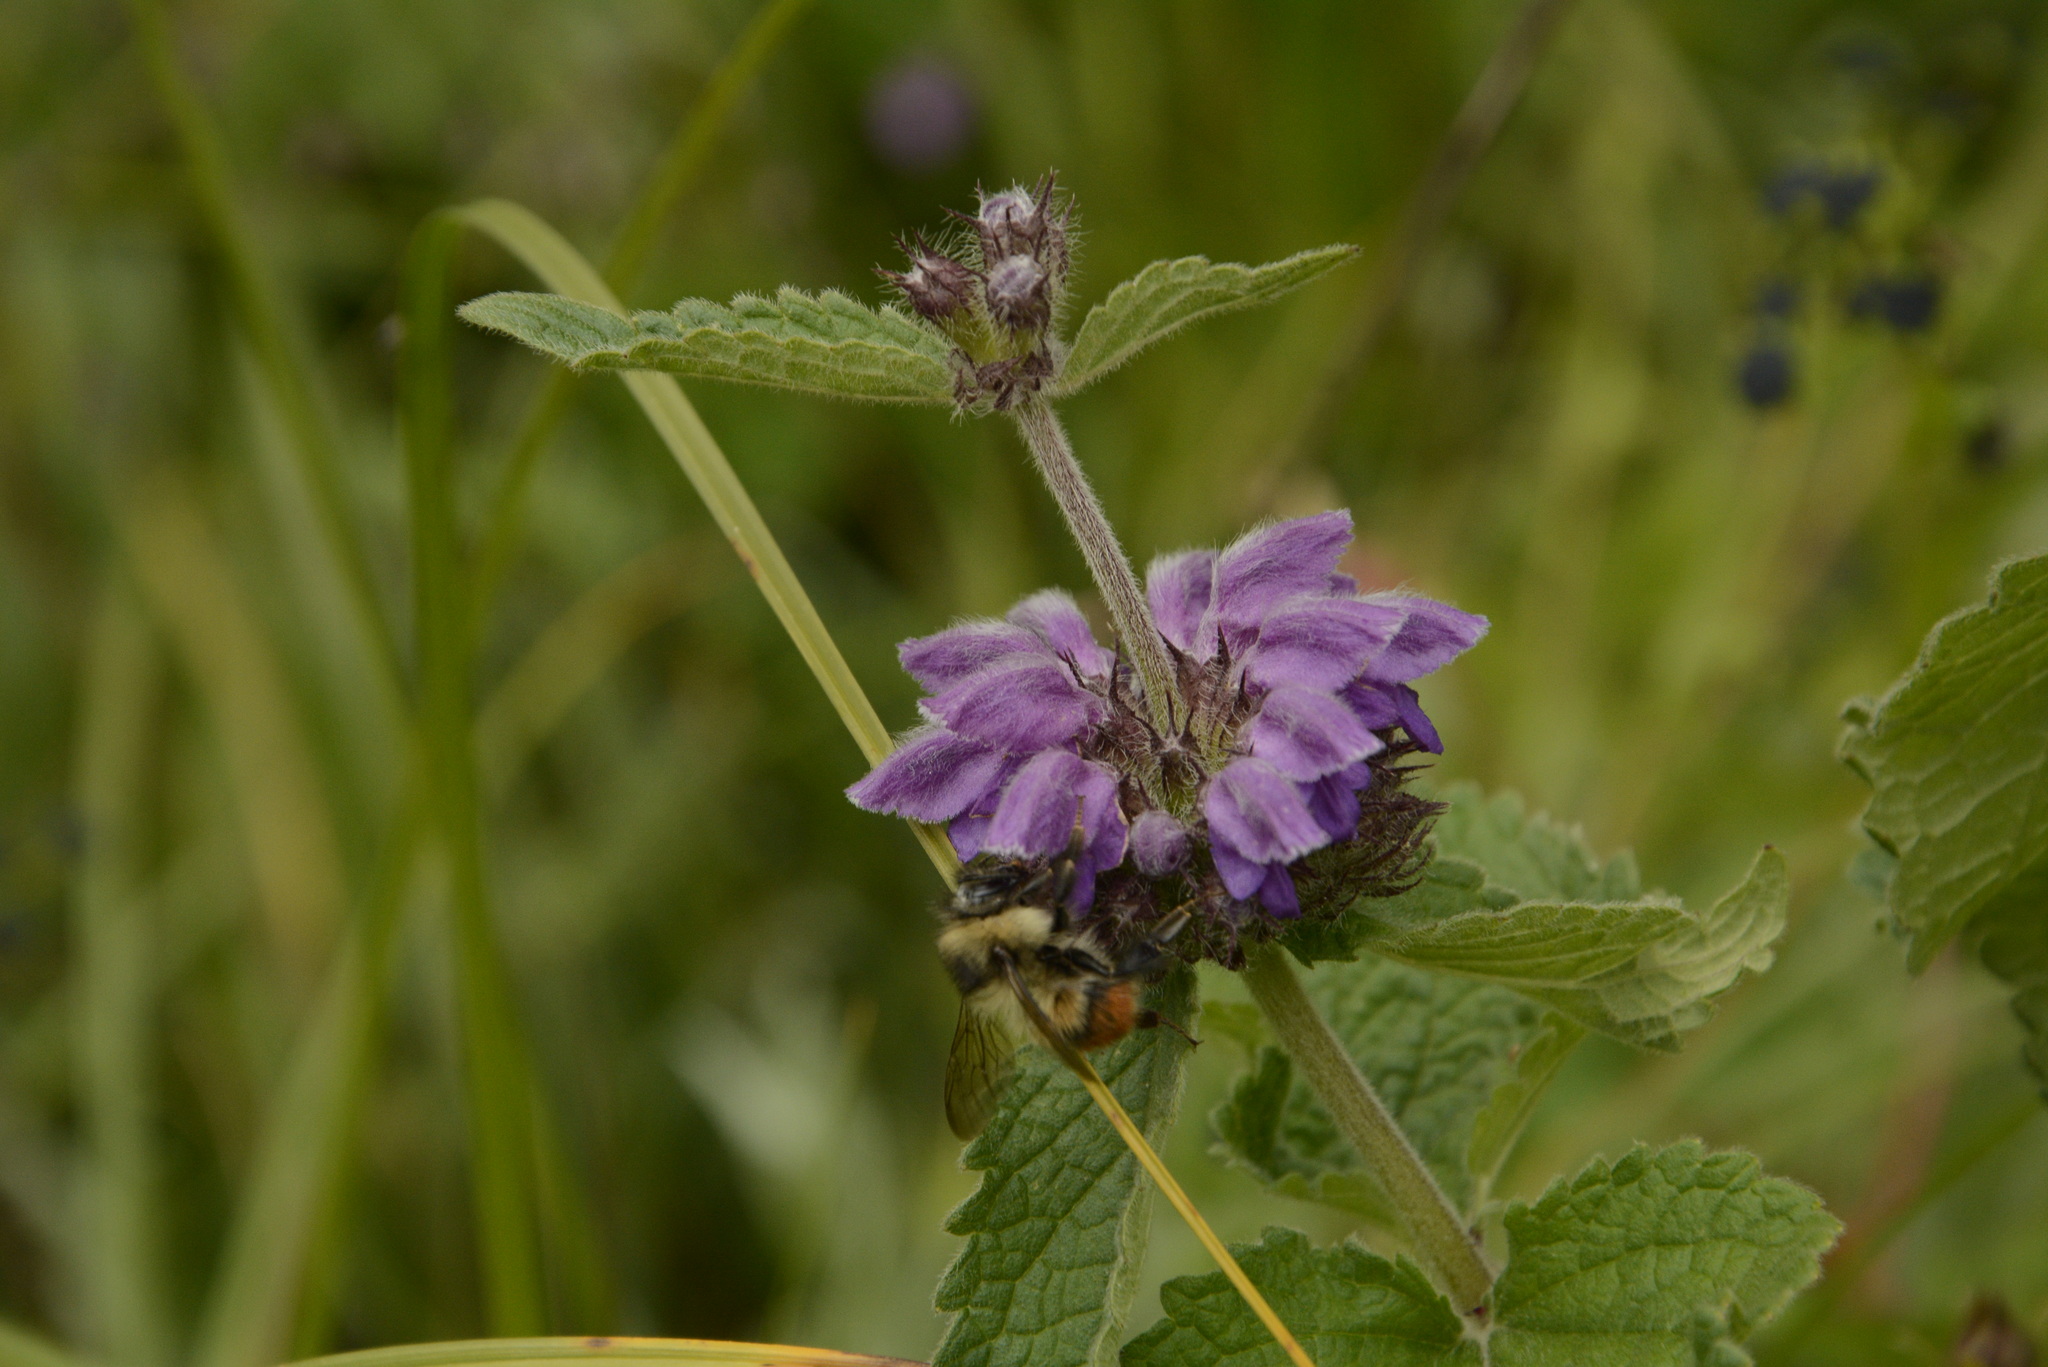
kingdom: Plantae
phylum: Tracheophyta
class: Magnoliopsida
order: Lamiales
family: Lamiaceae
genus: Phlomoides
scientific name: Phlomoides bracteosa
